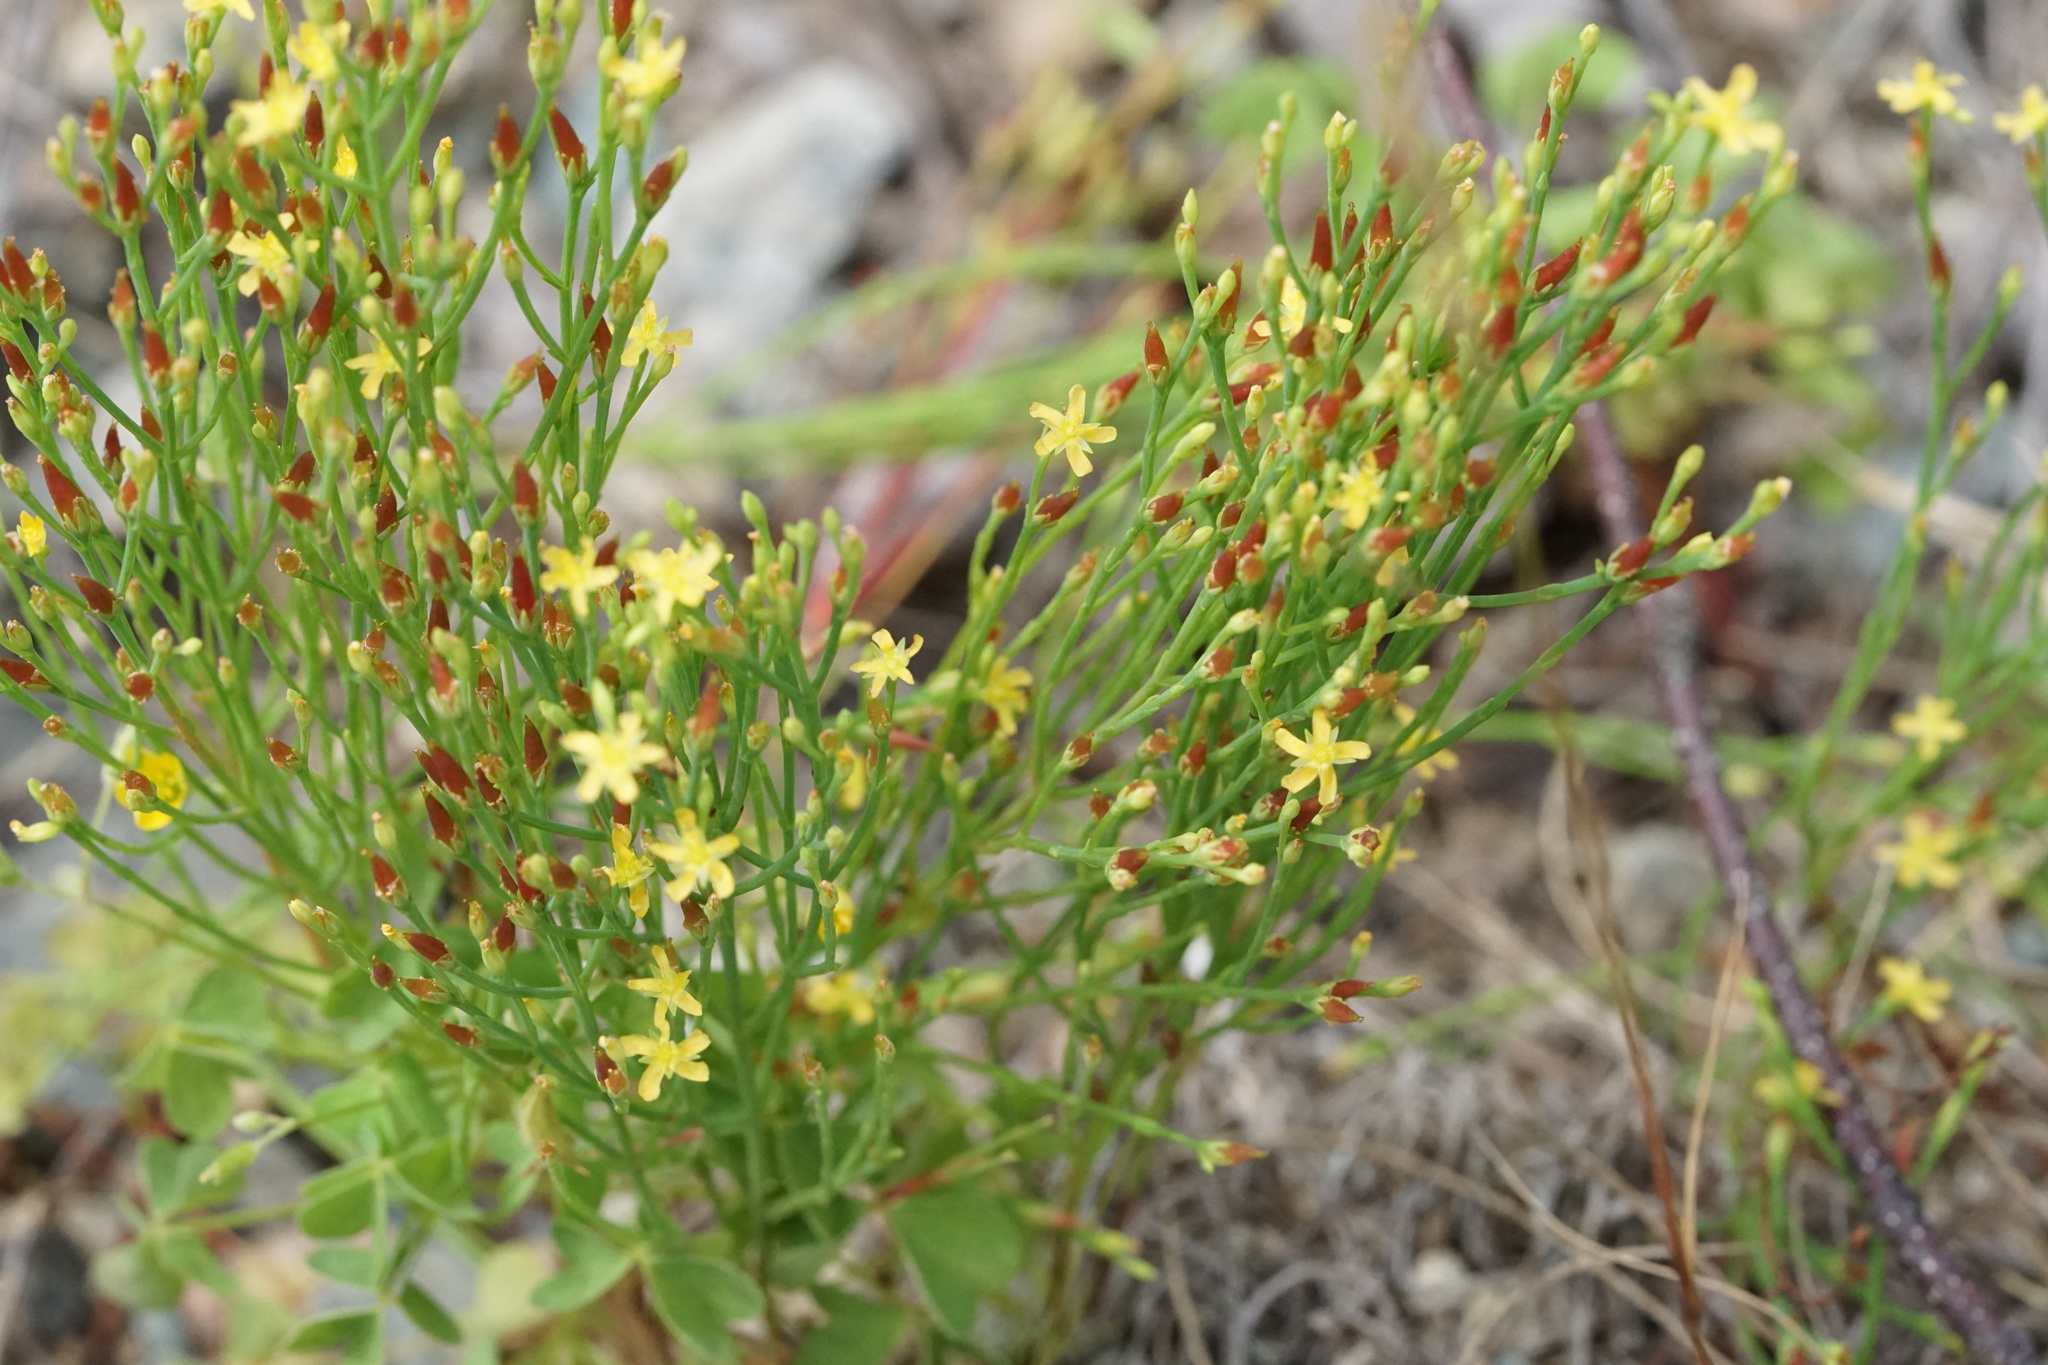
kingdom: Plantae
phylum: Tracheophyta
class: Magnoliopsida
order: Malpighiales
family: Hypericaceae
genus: Hypericum
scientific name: Hypericum gentianoides
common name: Gentian-leaved st. john's-wort
